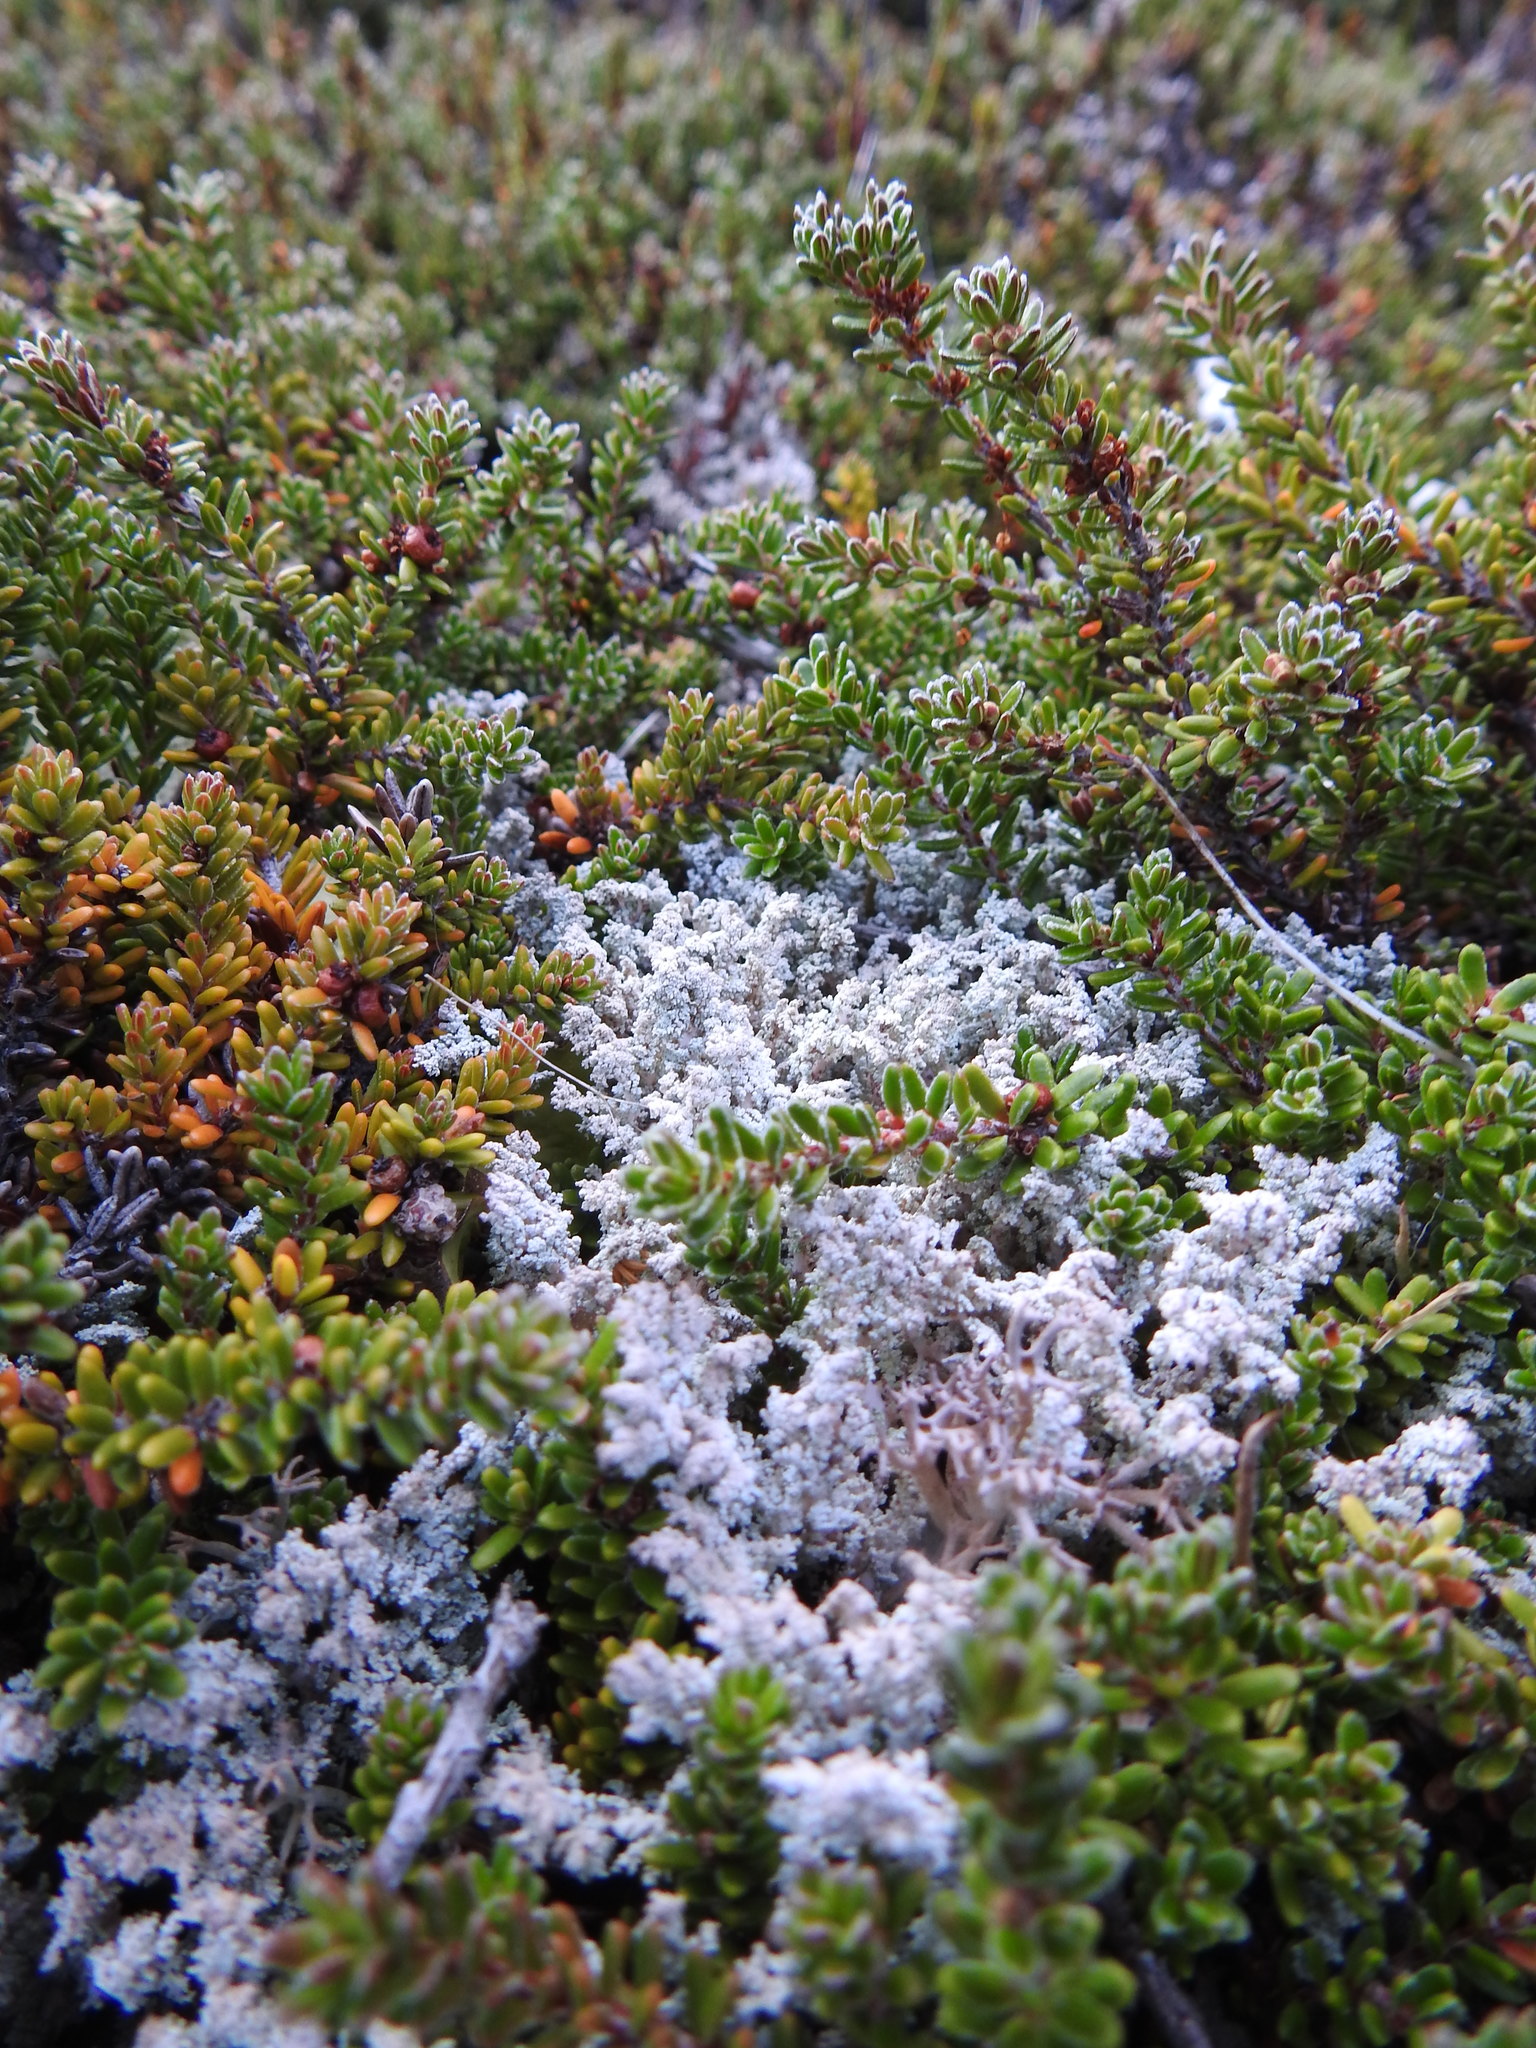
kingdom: Plantae
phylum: Tracheophyta
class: Magnoliopsida
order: Ericales
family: Ericaceae
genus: Empetrum
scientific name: Empetrum rubrum
